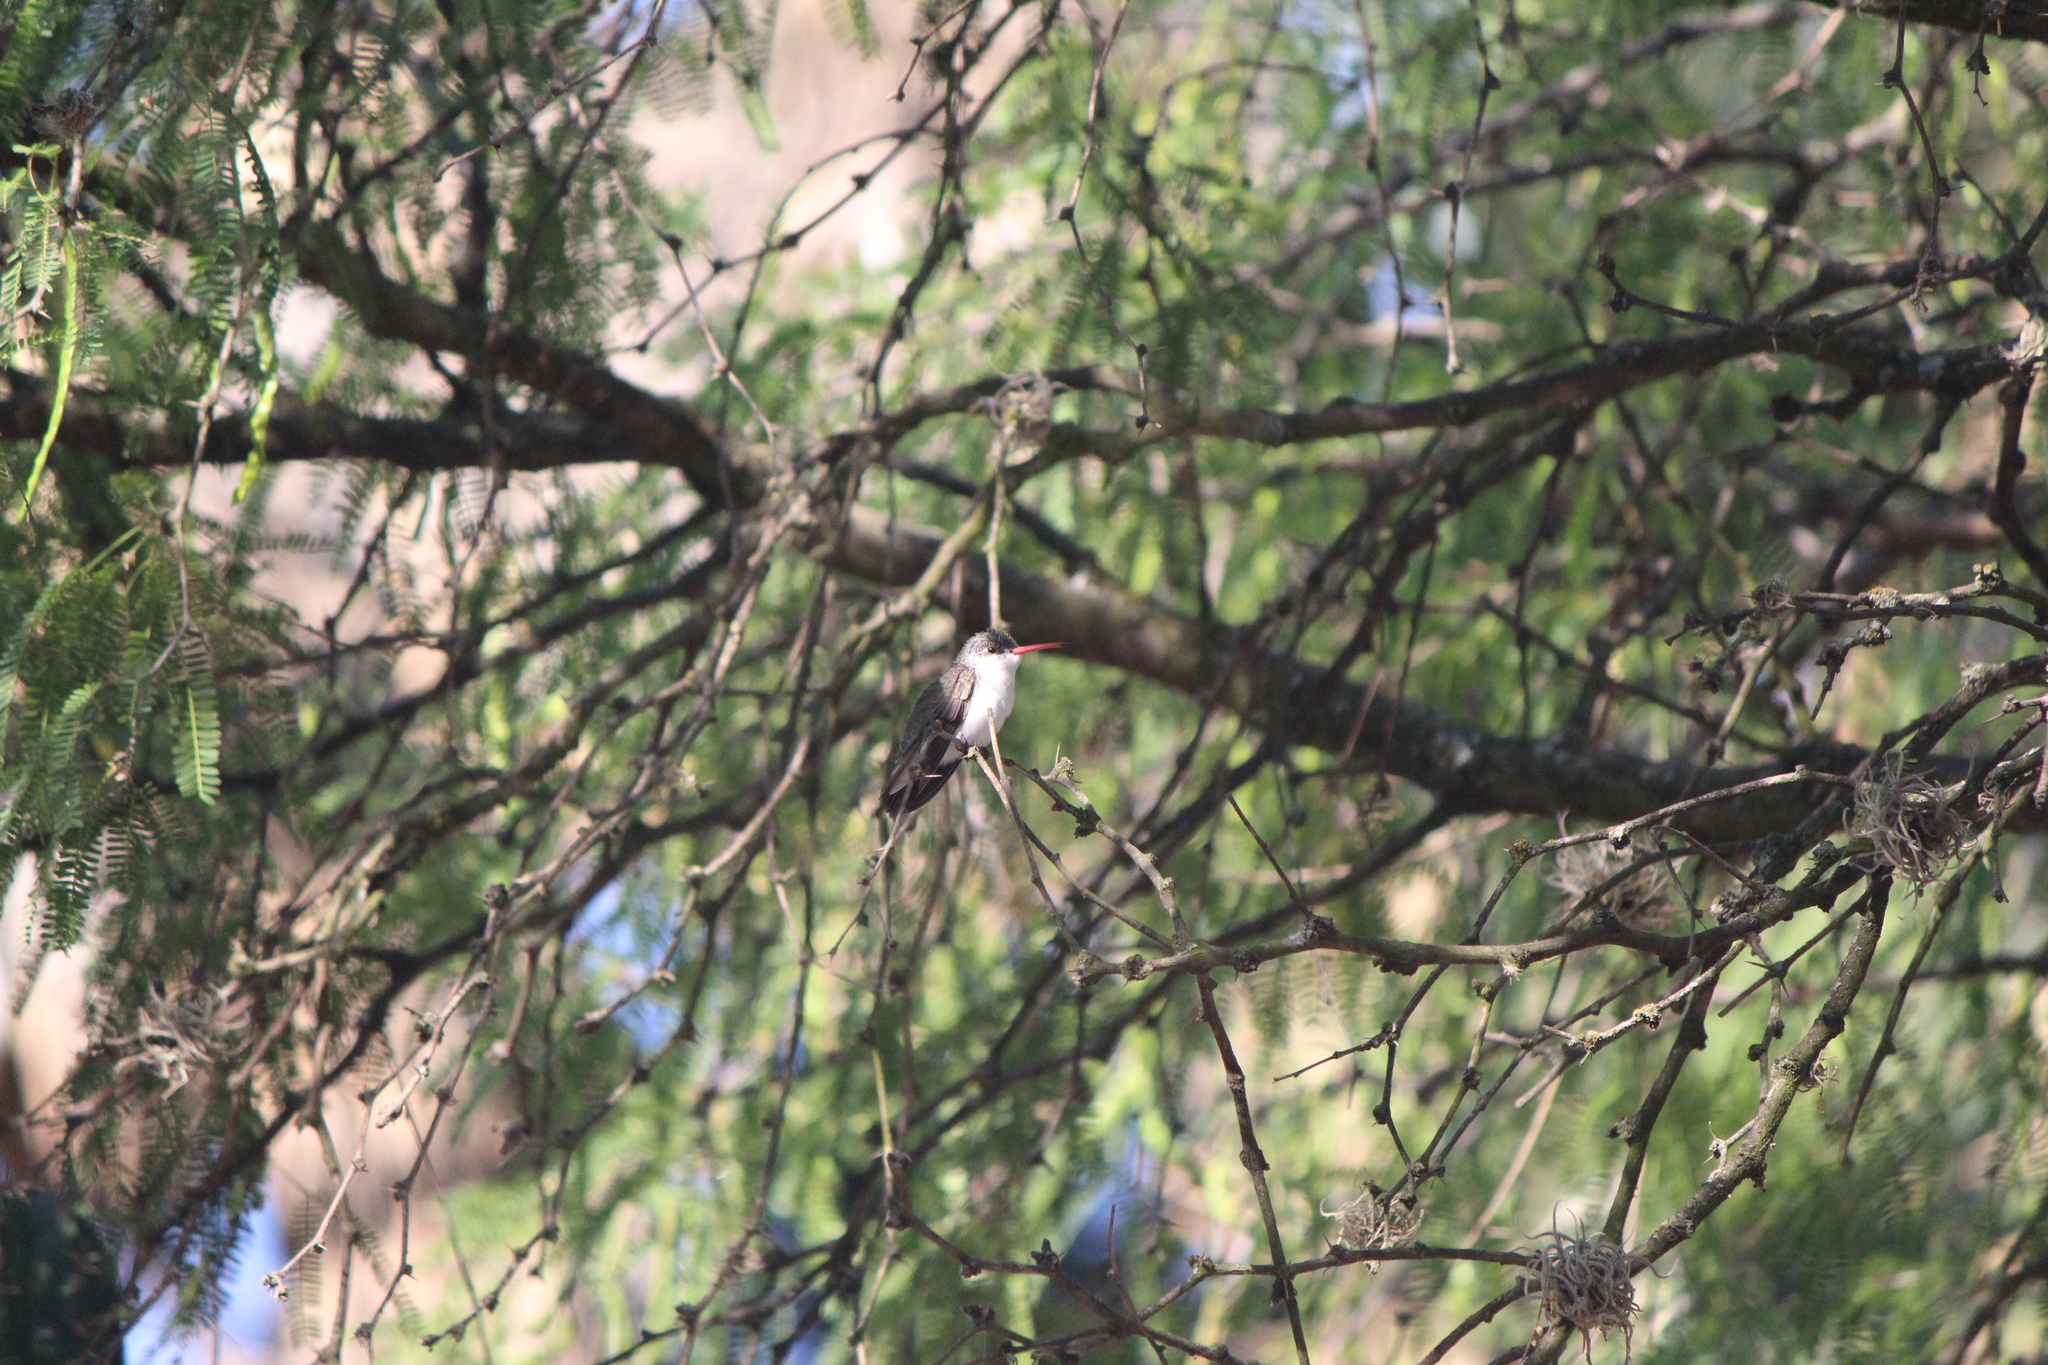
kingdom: Animalia
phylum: Chordata
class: Aves
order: Apodiformes
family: Trochilidae
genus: Leucolia
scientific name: Leucolia violiceps
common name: Violet-crowned hummingbird
